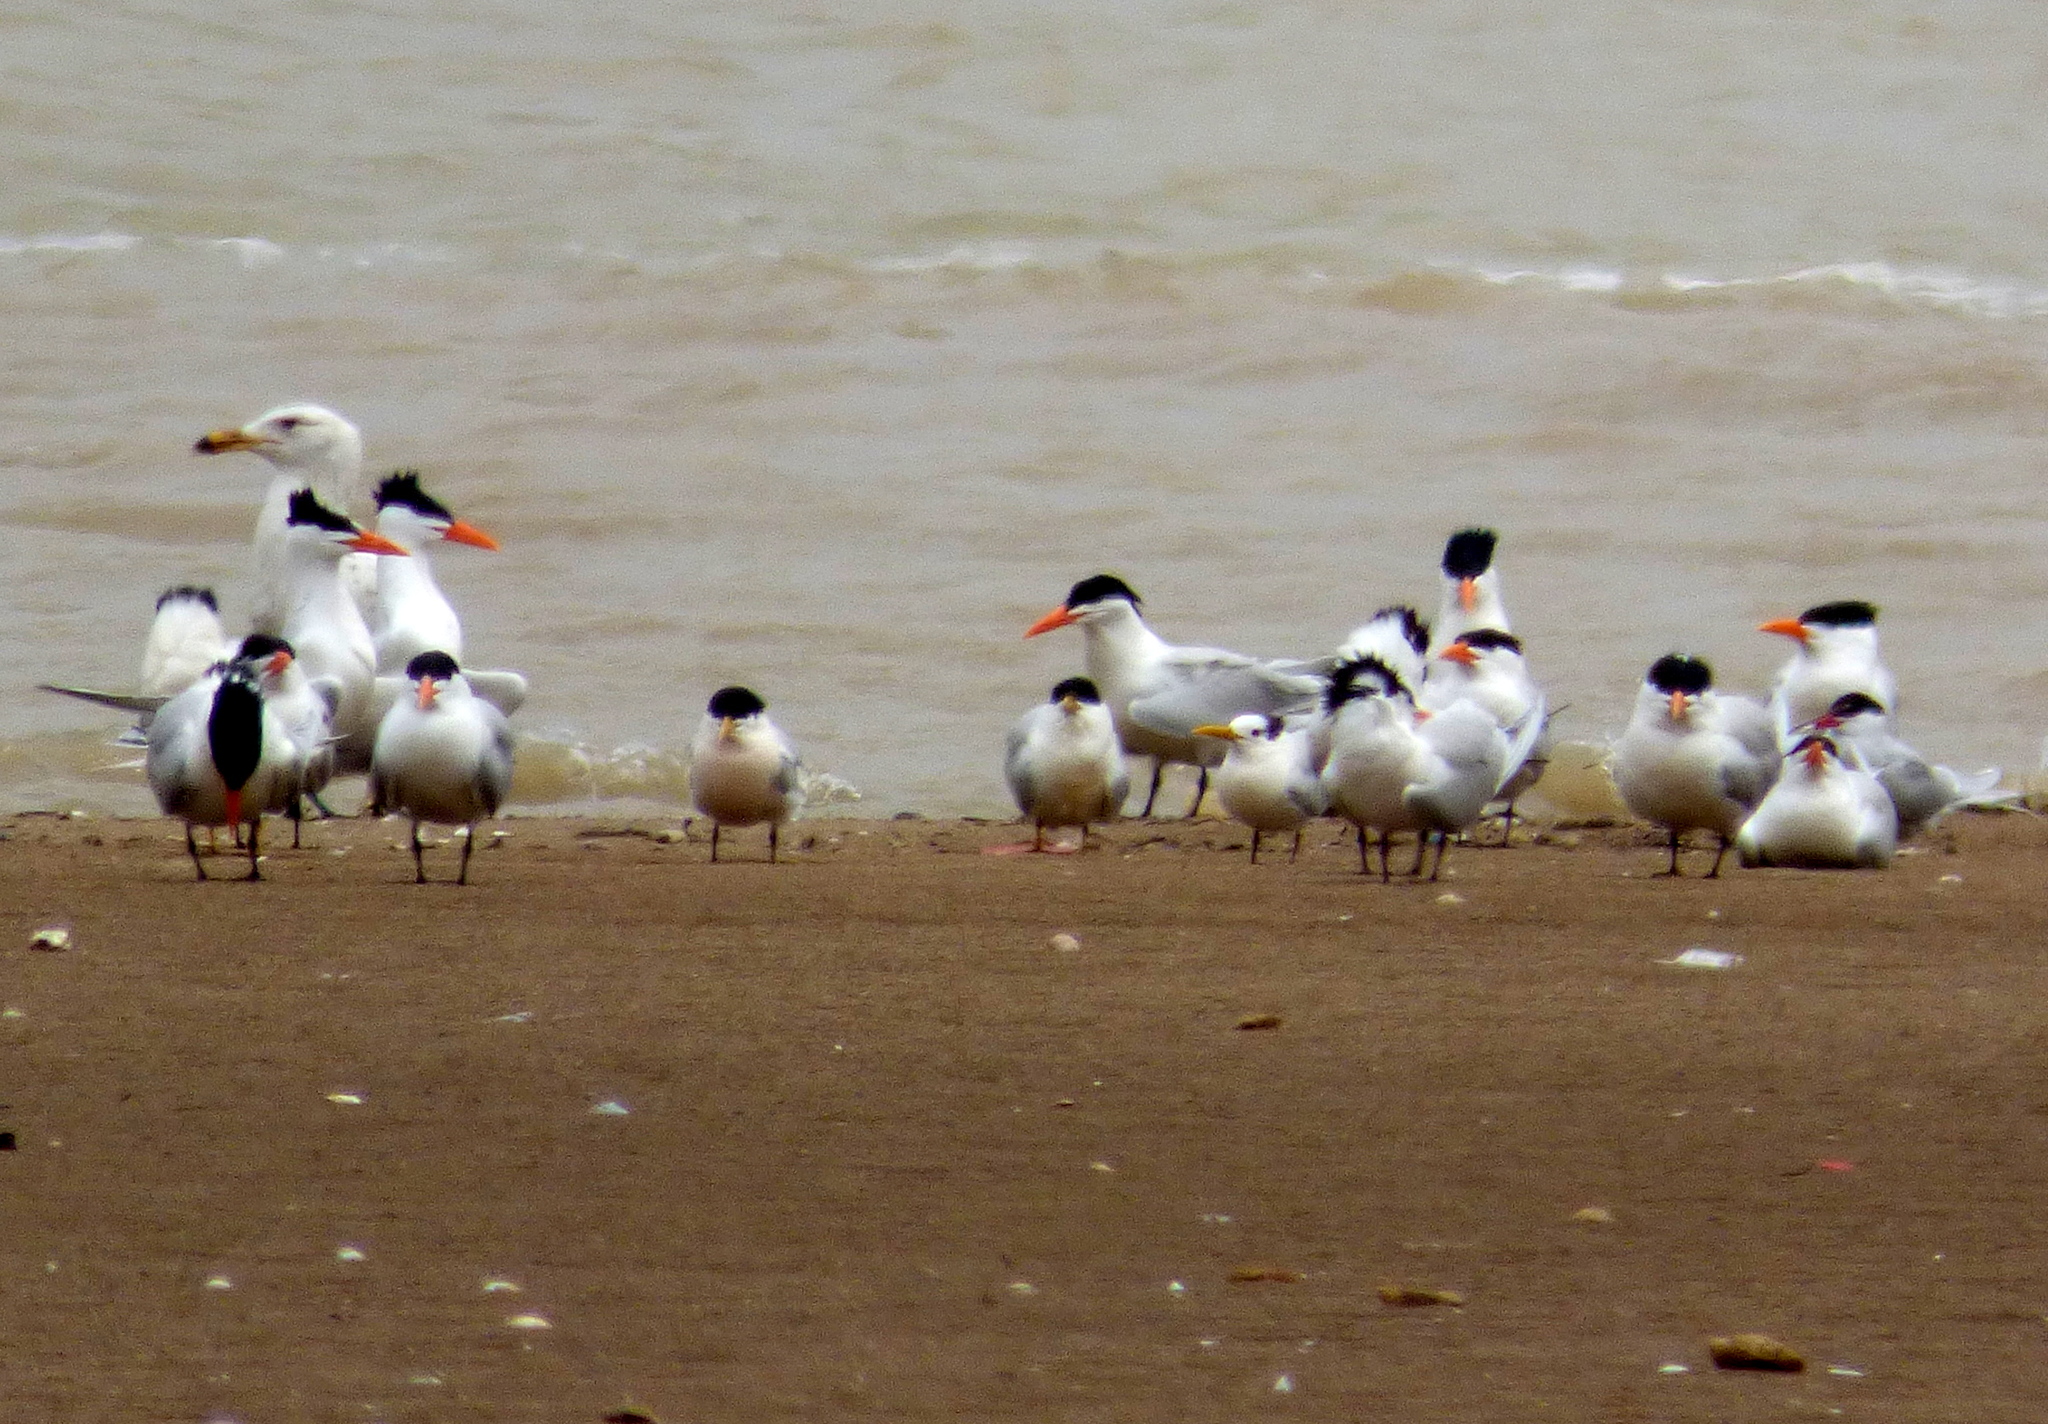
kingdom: Animalia
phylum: Chordata
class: Aves
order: Charadriiformes
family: Laridae
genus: Thalasseus
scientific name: Thalasseus sandvicensis
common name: Sandwich tern
